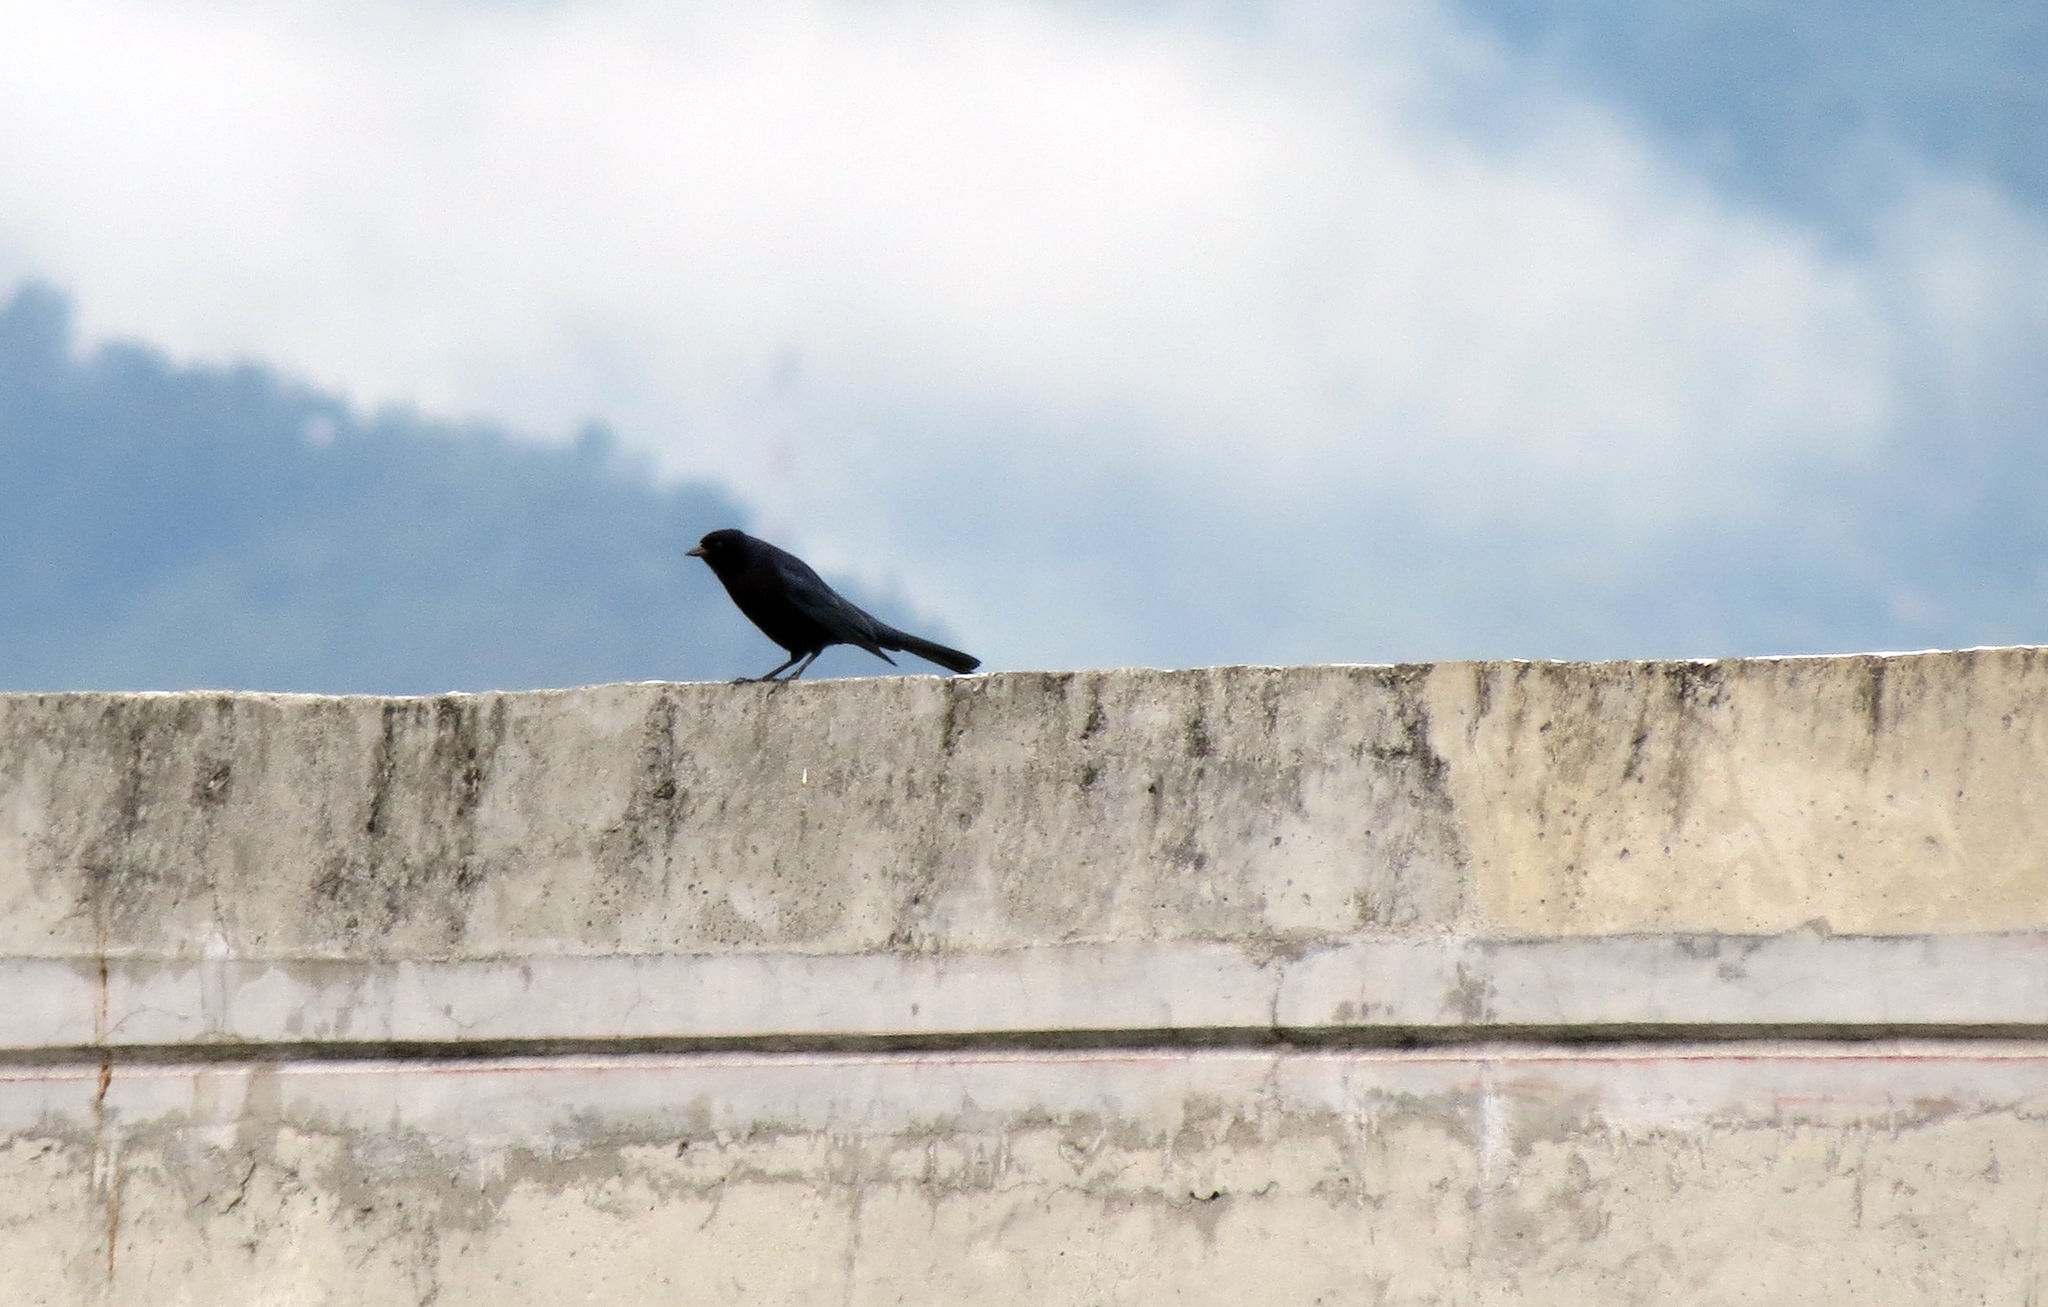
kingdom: Animalia
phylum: Chordata
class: Aves
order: Passeriformes
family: Icteridae
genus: Molothrus
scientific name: Molothrus bonariensis
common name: Shiny cowbird
